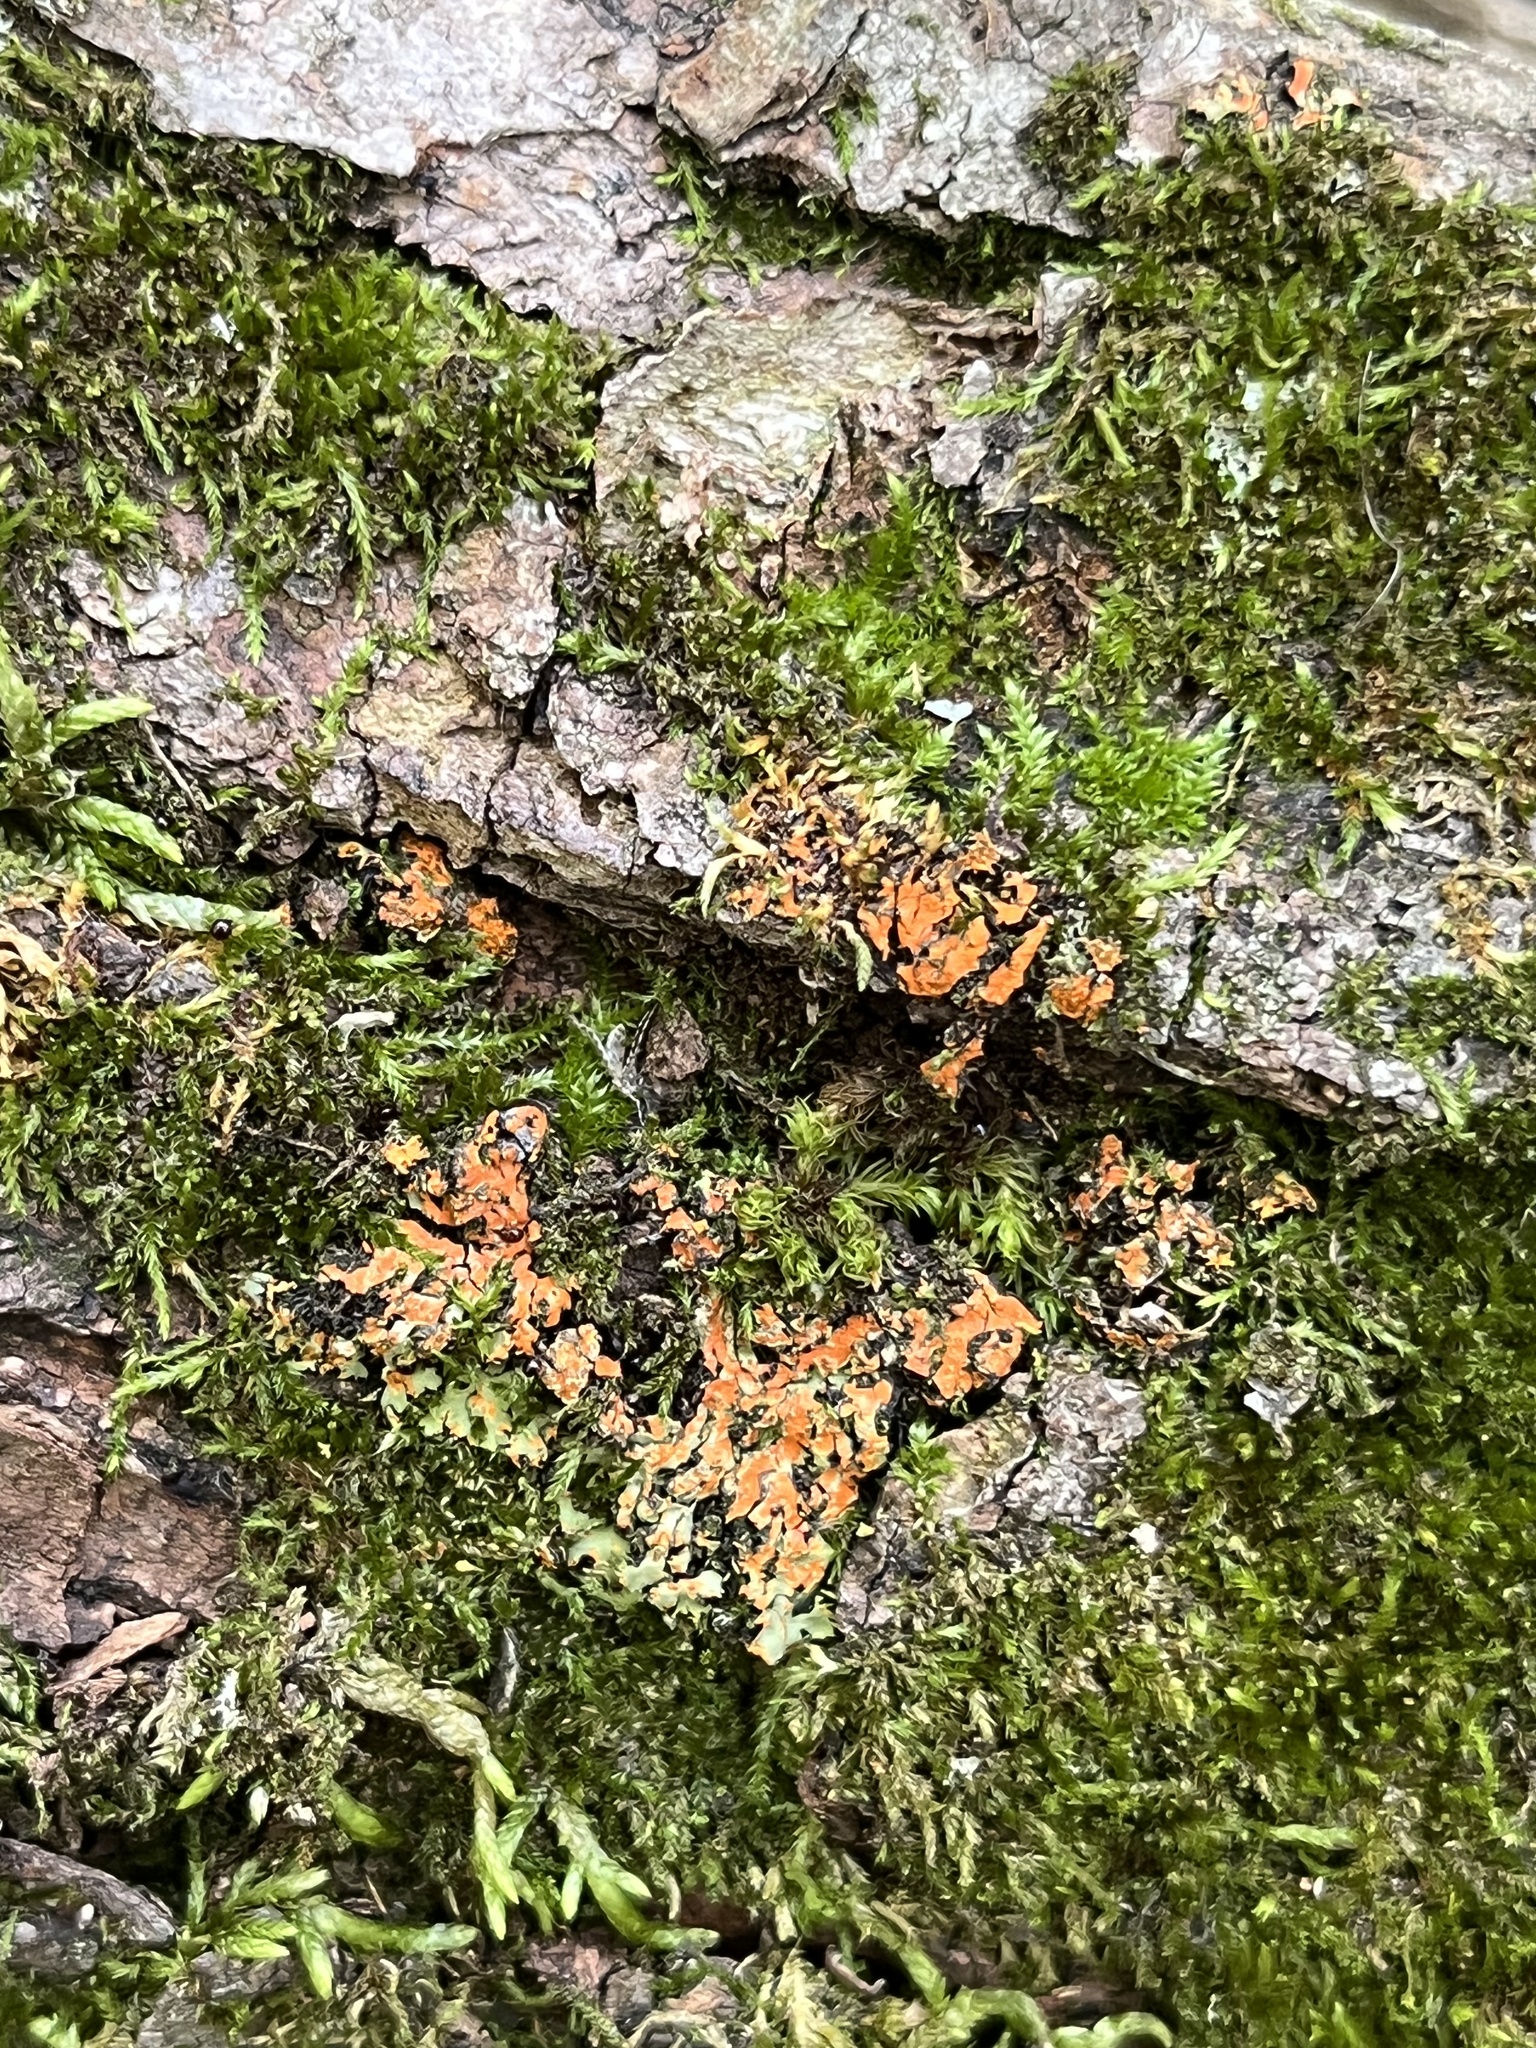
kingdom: Fungi
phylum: Ascomycota
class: Lecanoromycetes
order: Caliciales
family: Physciaceae
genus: Phaeophyscia
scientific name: Phaeophyscia rubropulchra
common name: Orange-cored shadow lichen
